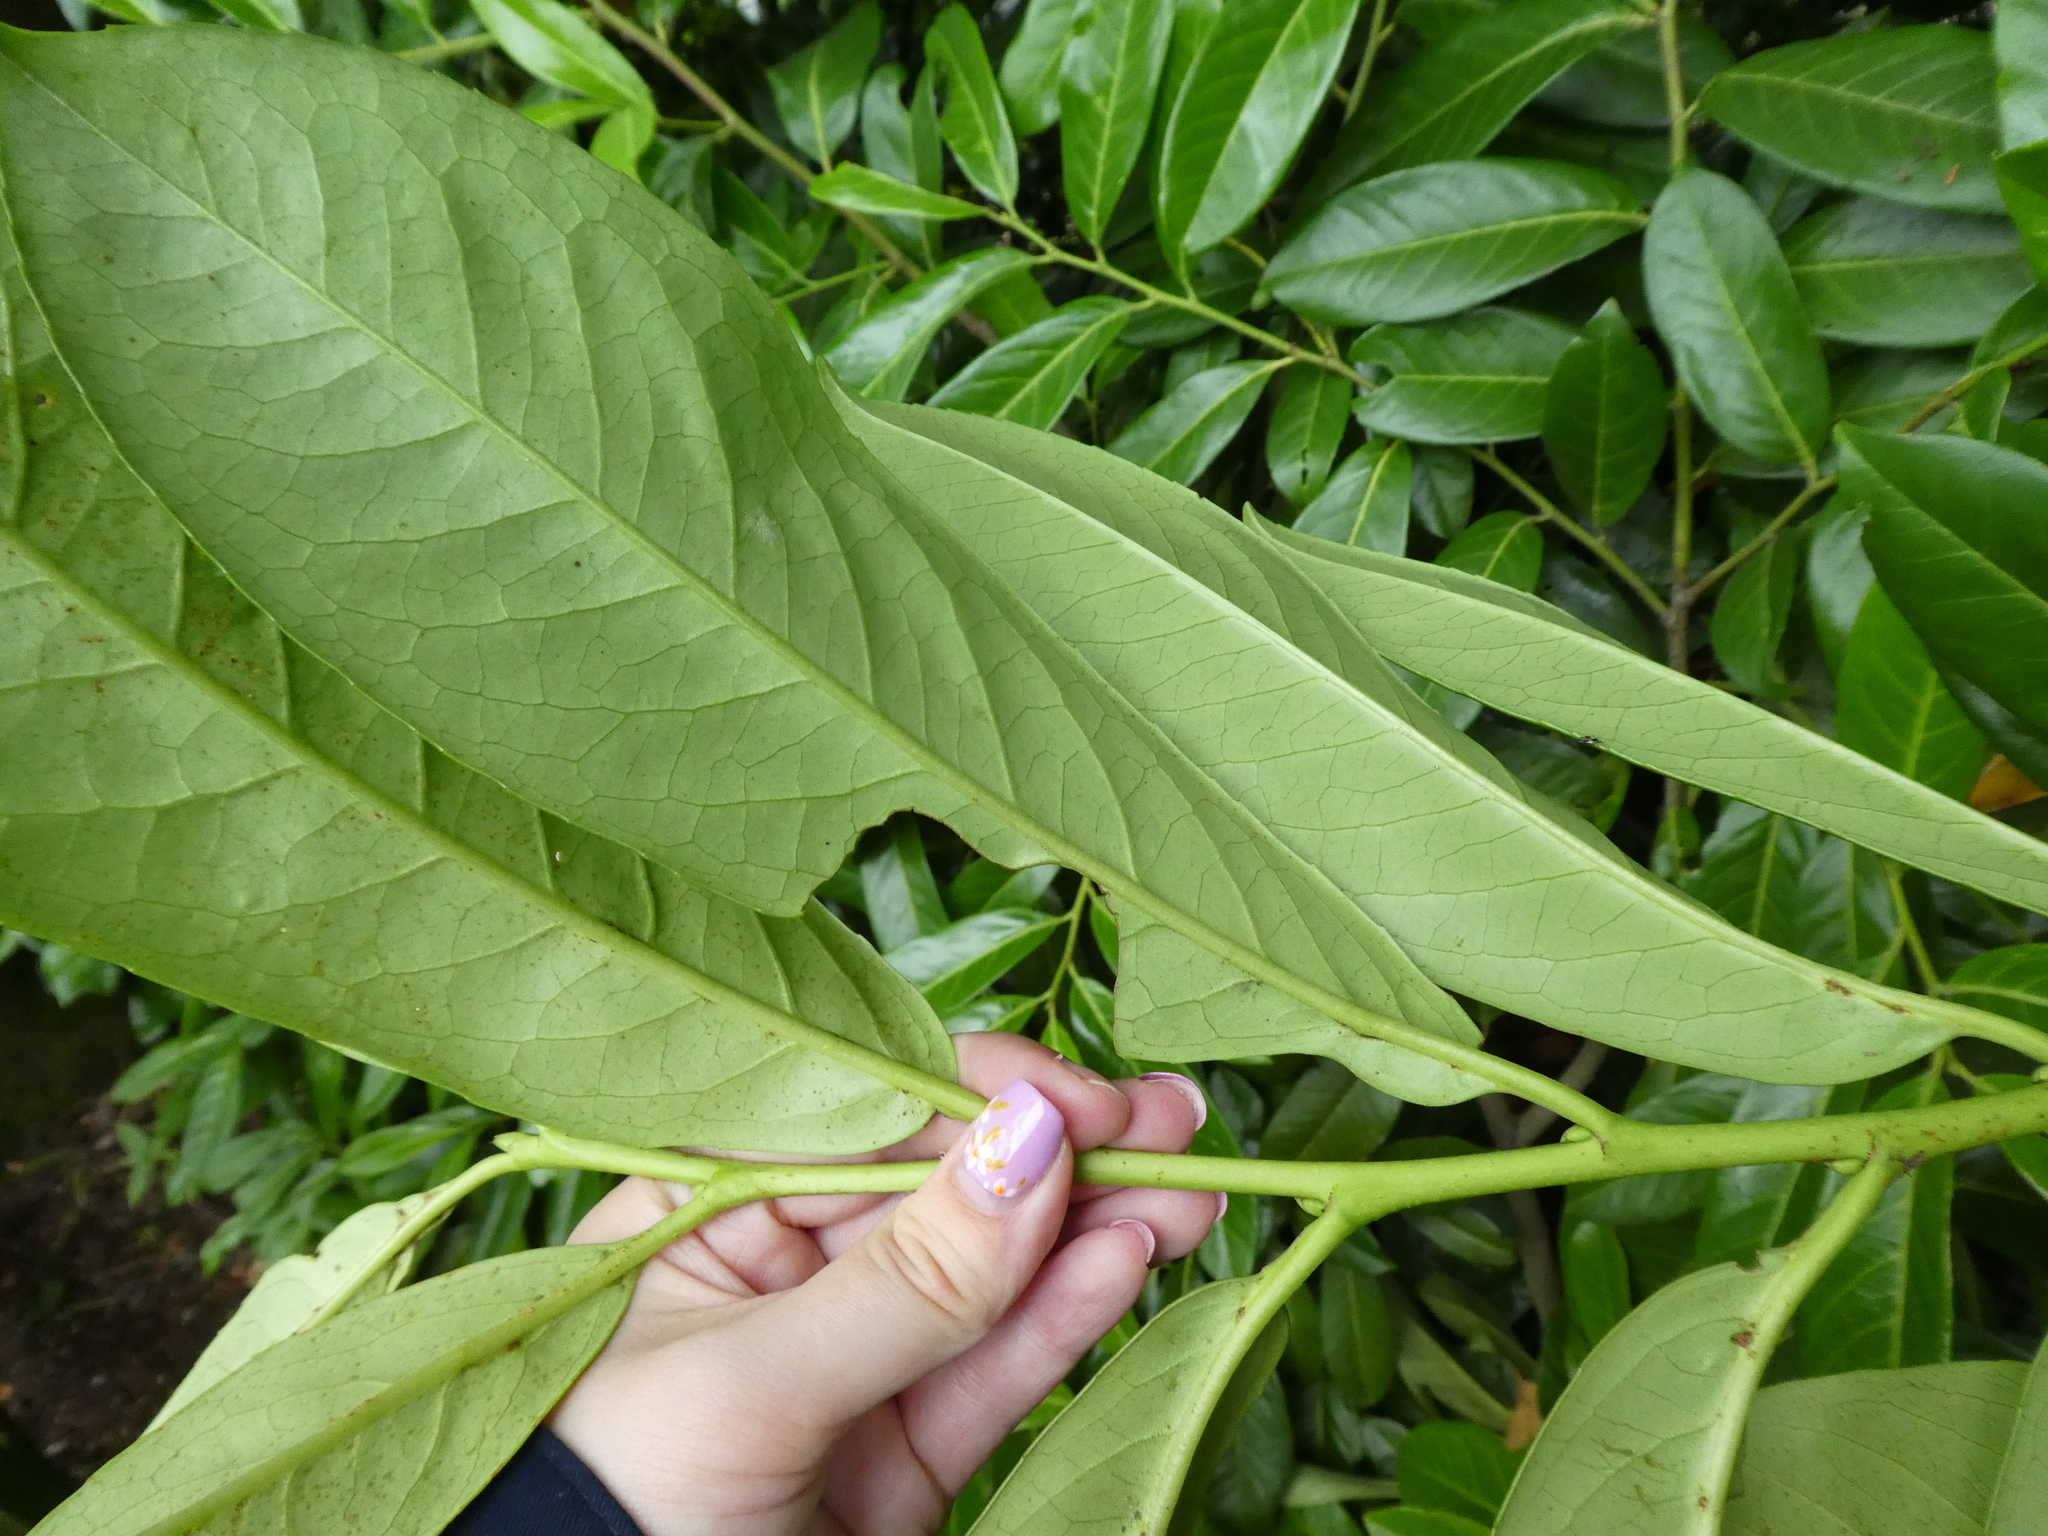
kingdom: Plantae
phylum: Tracheophyta
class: Magnoliopsida
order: Rosales
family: Rosaceae
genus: Prunus
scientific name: Prunus laurocerasus
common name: Cherry laurel
